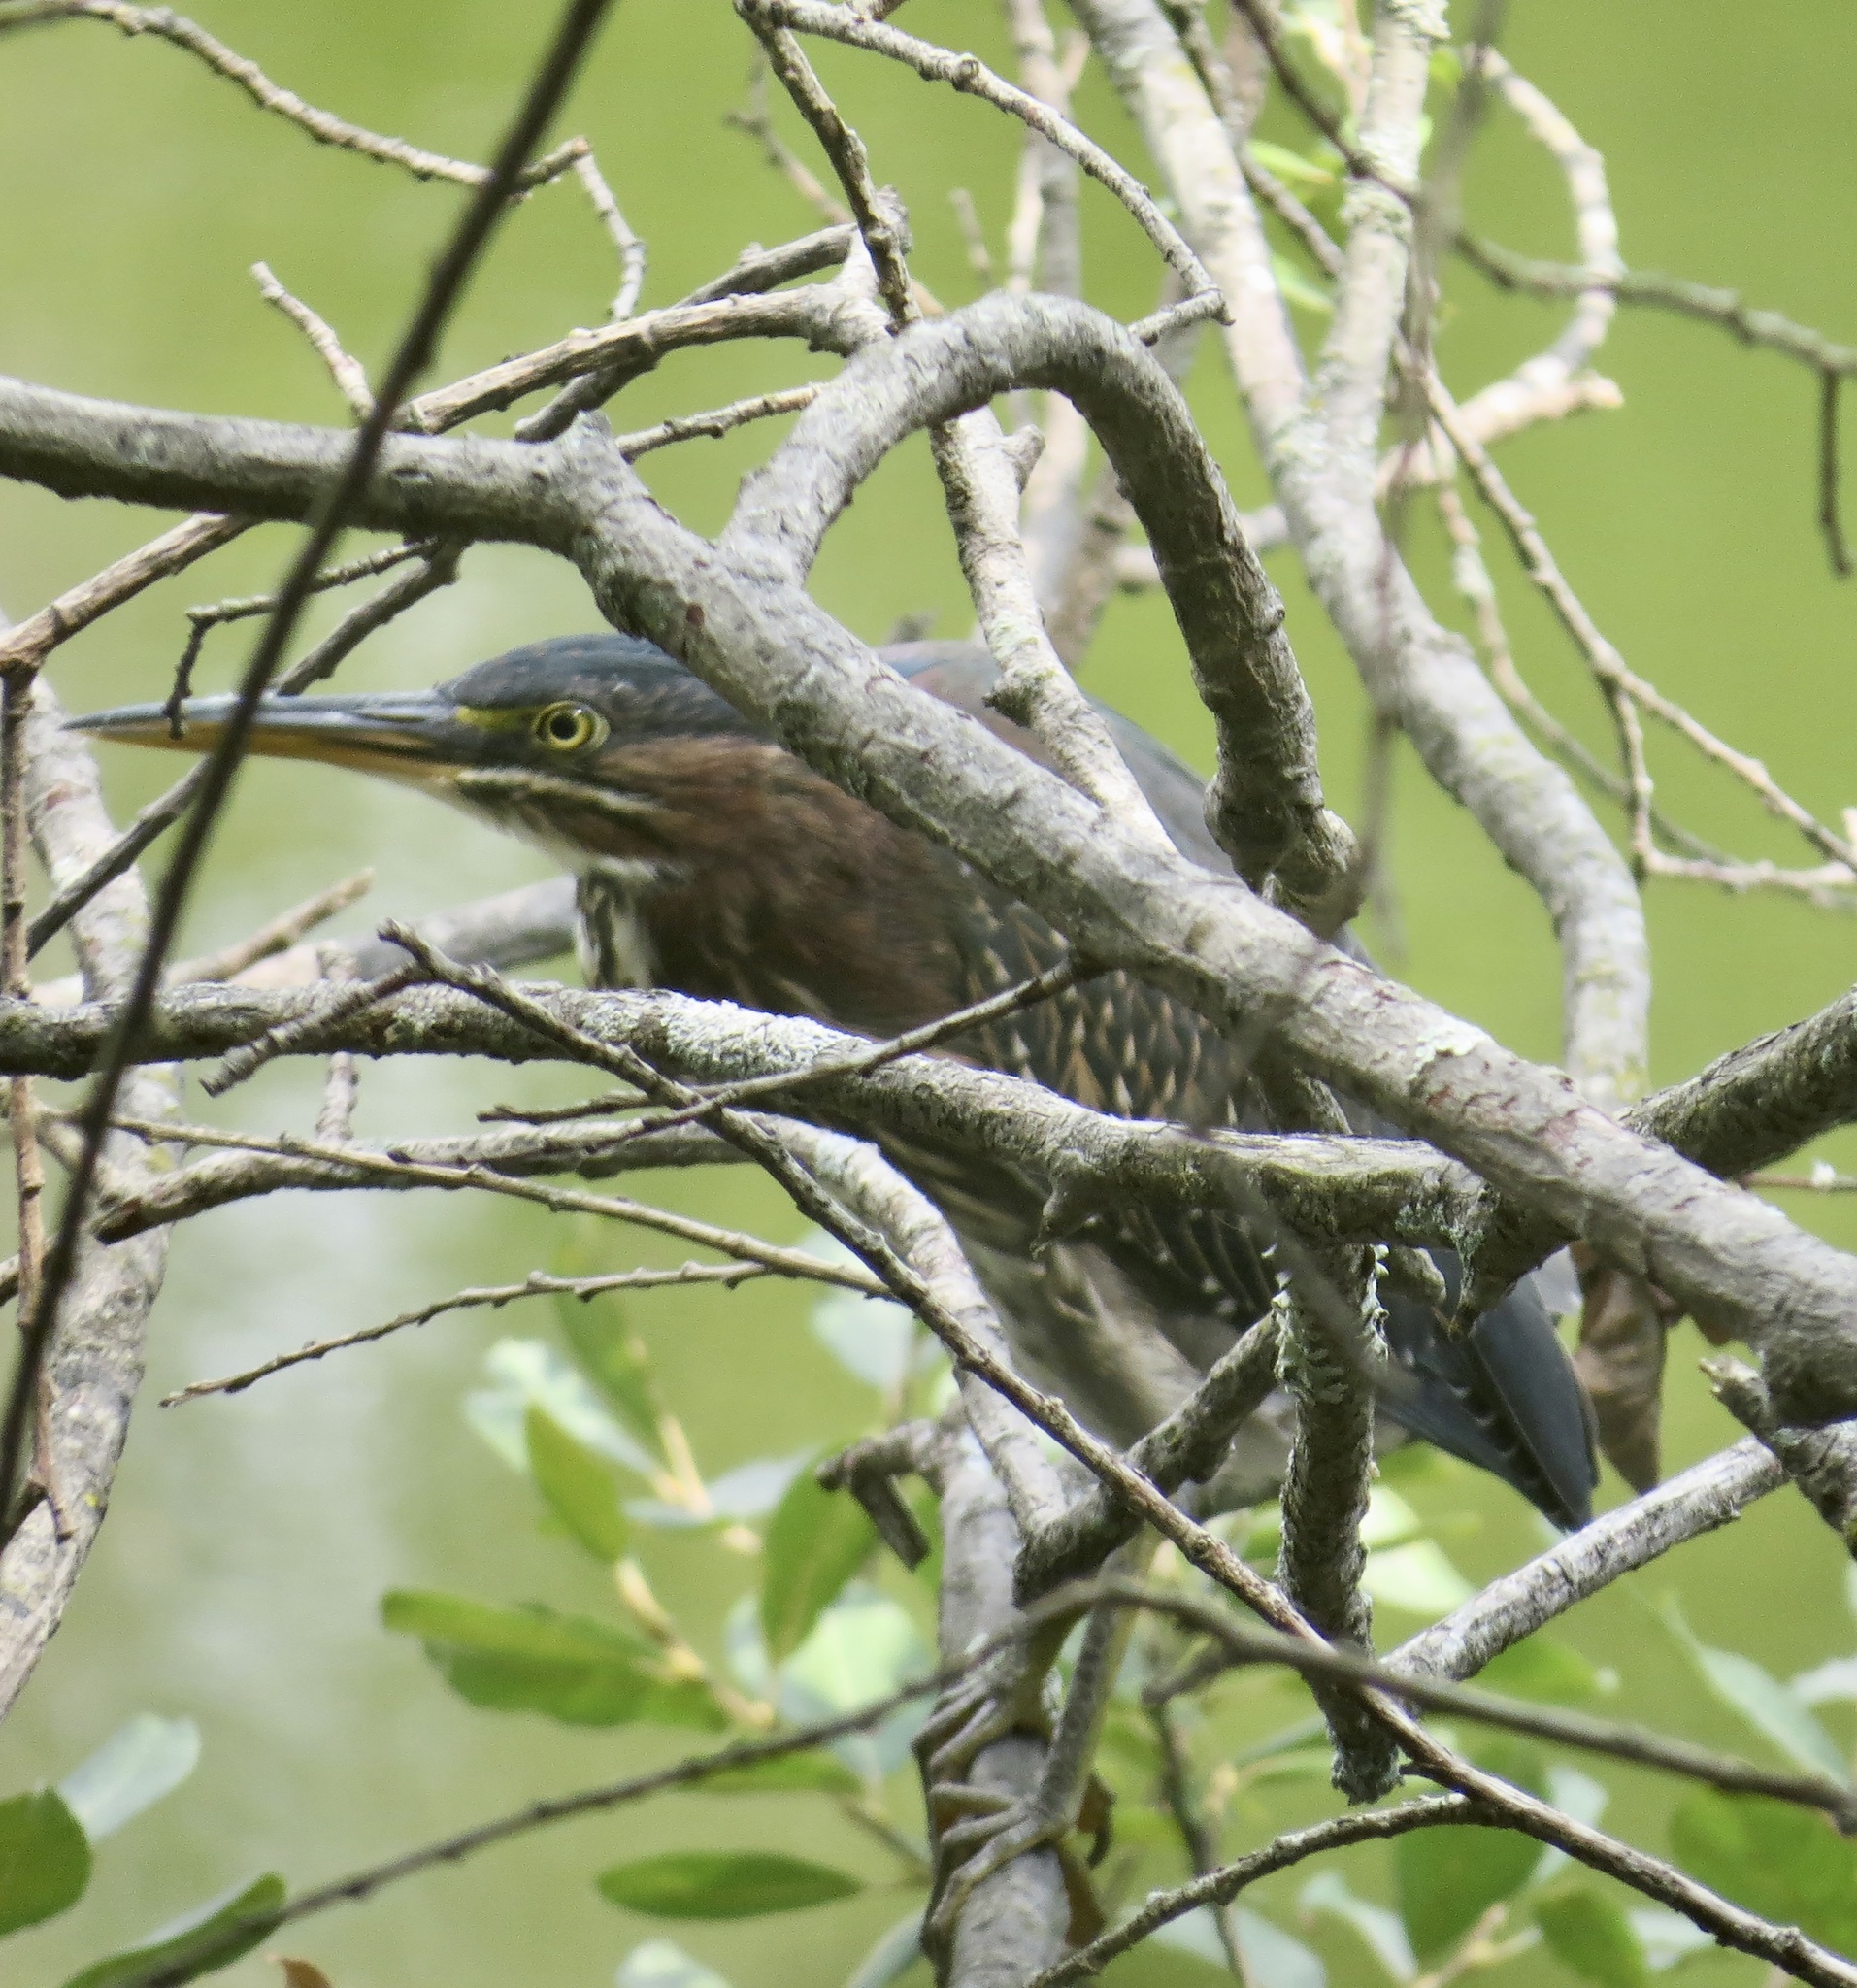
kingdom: Animalia
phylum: Chordata
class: Aves
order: Pelecaniformes
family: Ardeidae
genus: Butorides
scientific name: Butorides virescens
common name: Green heron
